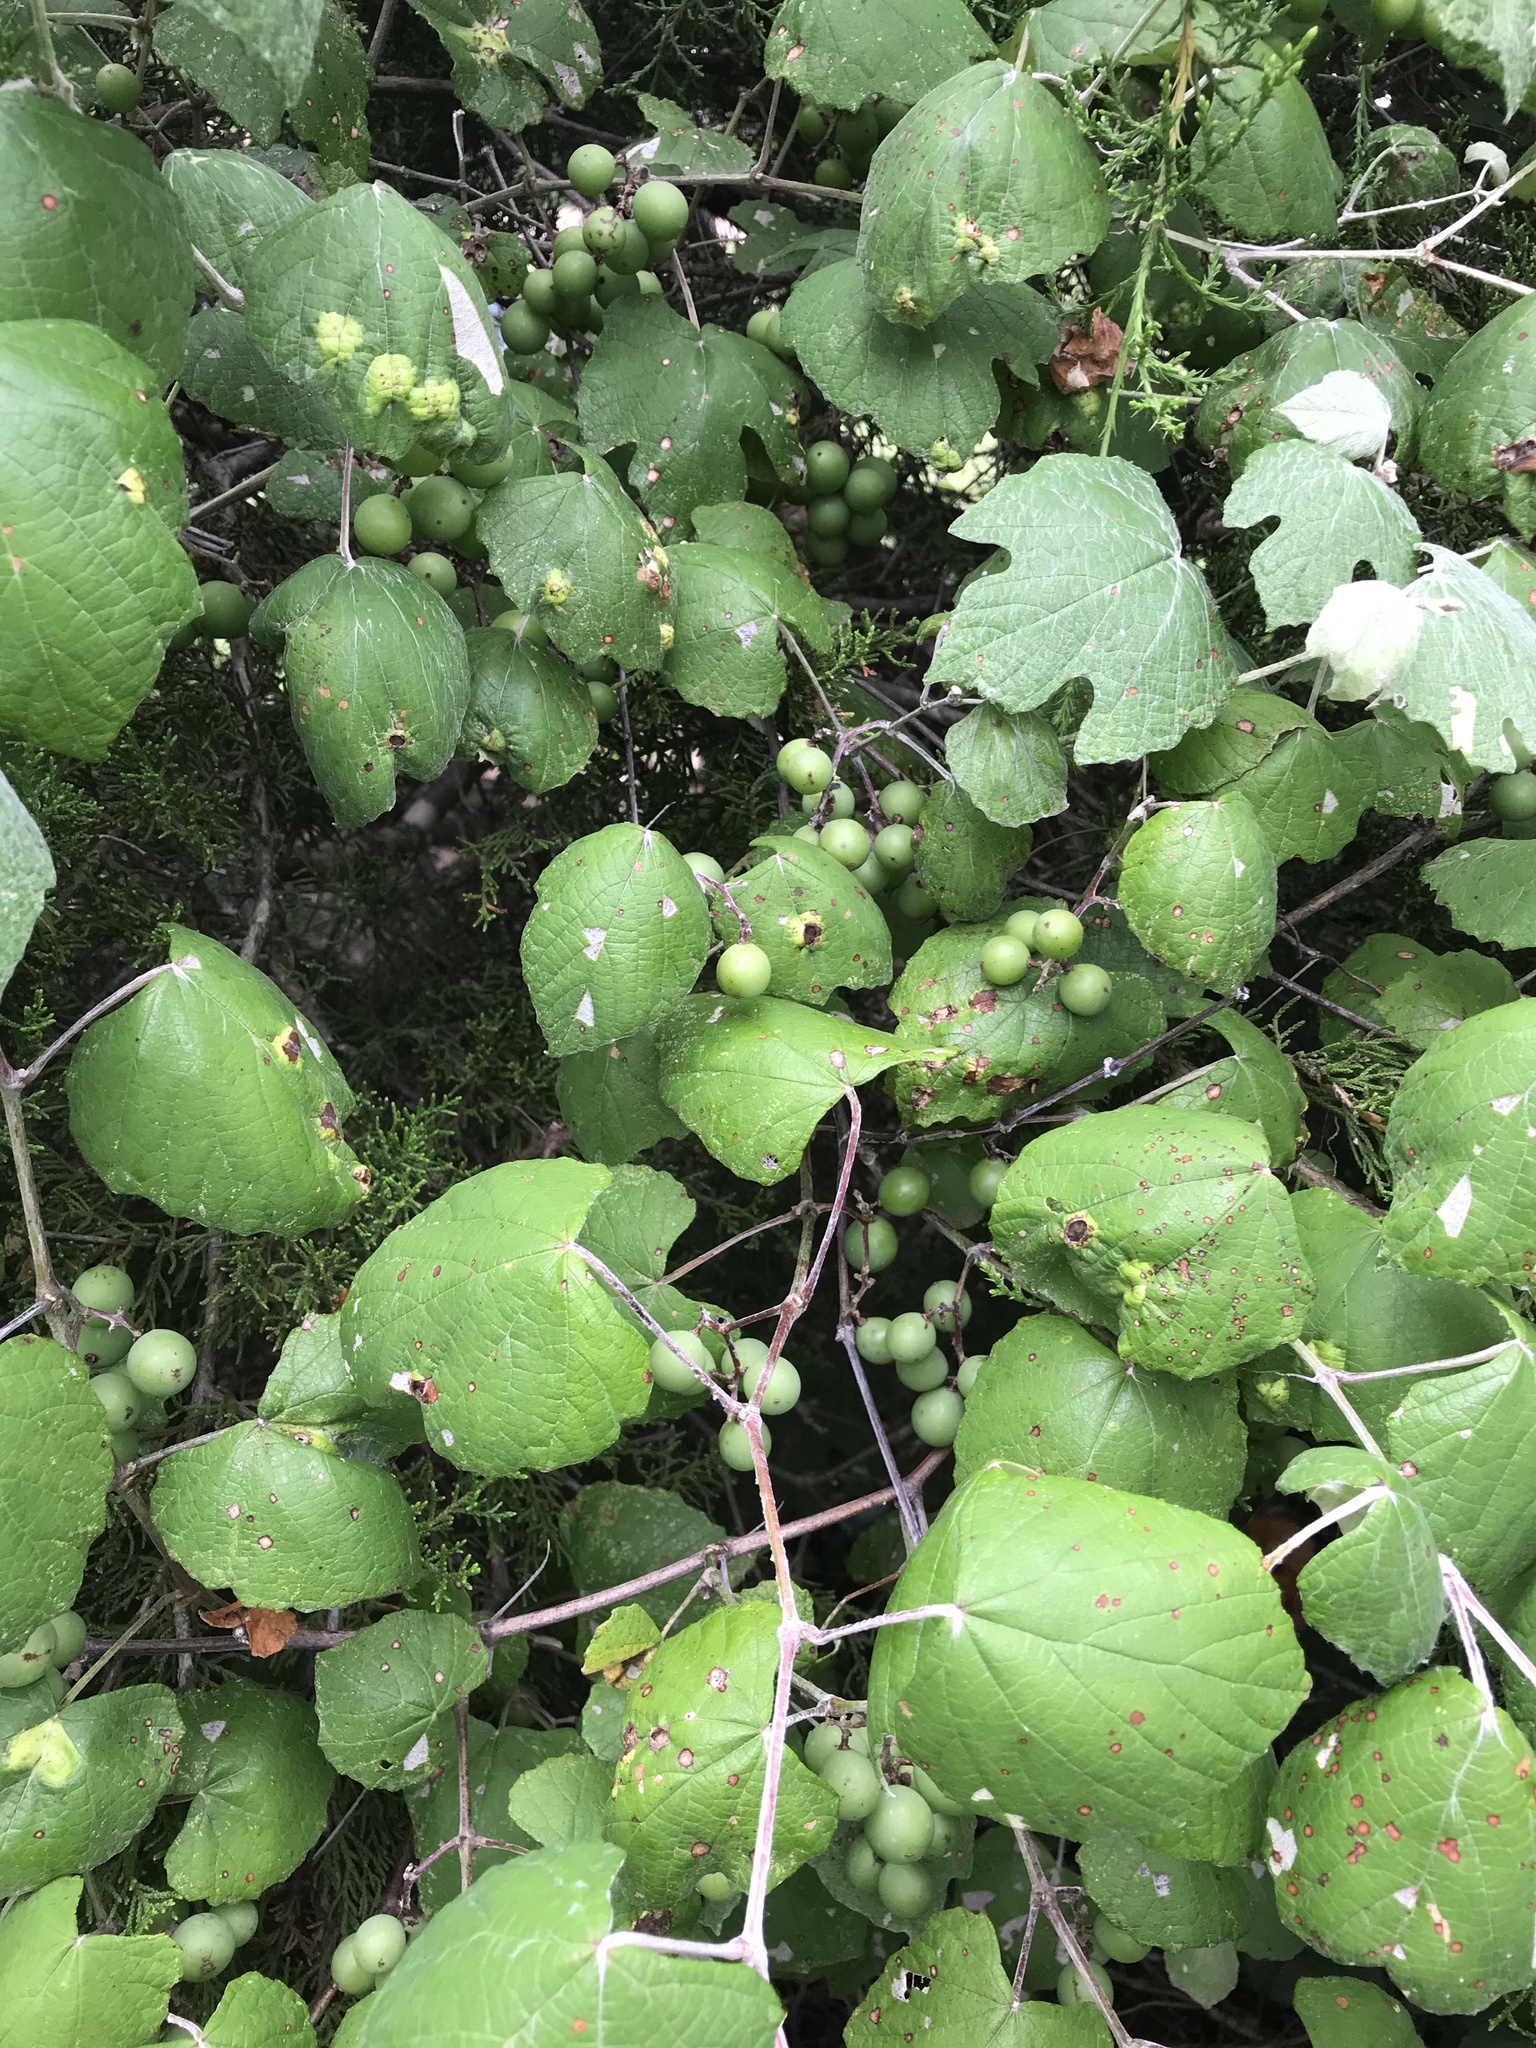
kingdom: Plantae
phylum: Tracheophyta
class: Magnoliopsida
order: Vitales
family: Vitaceae
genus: Vitis
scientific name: Vitis mustangensis
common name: Mustang grape
